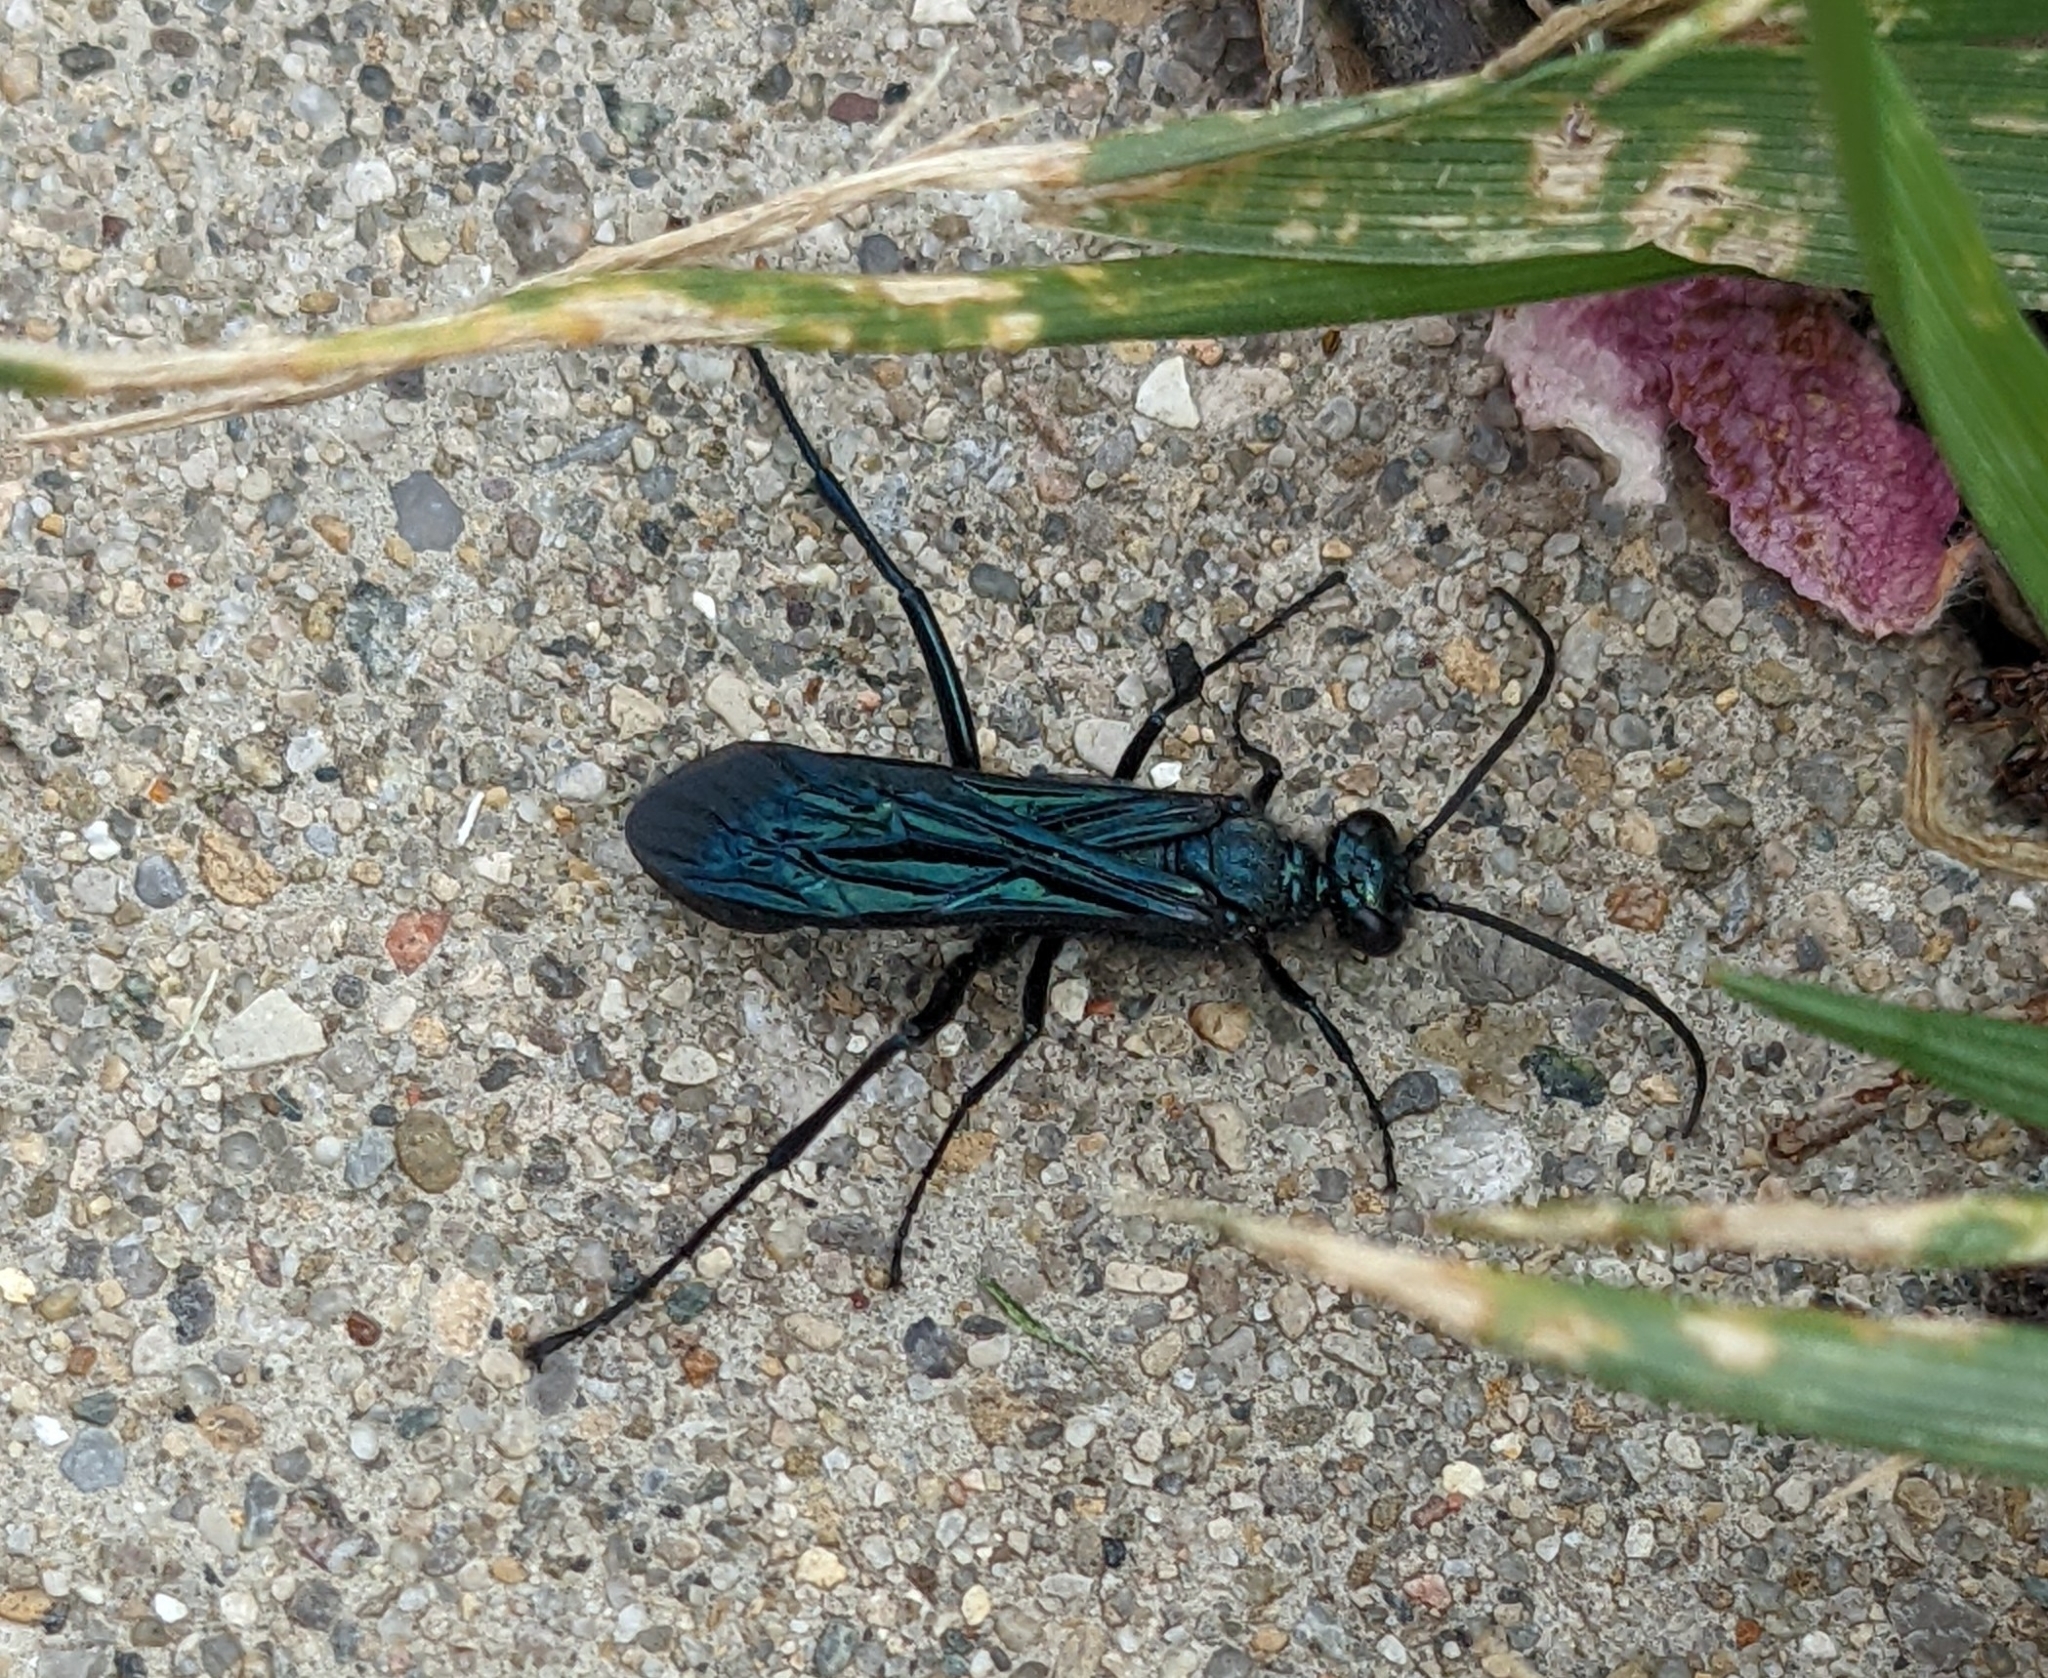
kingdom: Animalia
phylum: Arthropoda
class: Insecta
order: Hymenoptera
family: Sphecidae
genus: Chalybion
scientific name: Chalybion californicum
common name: Mud dauber
